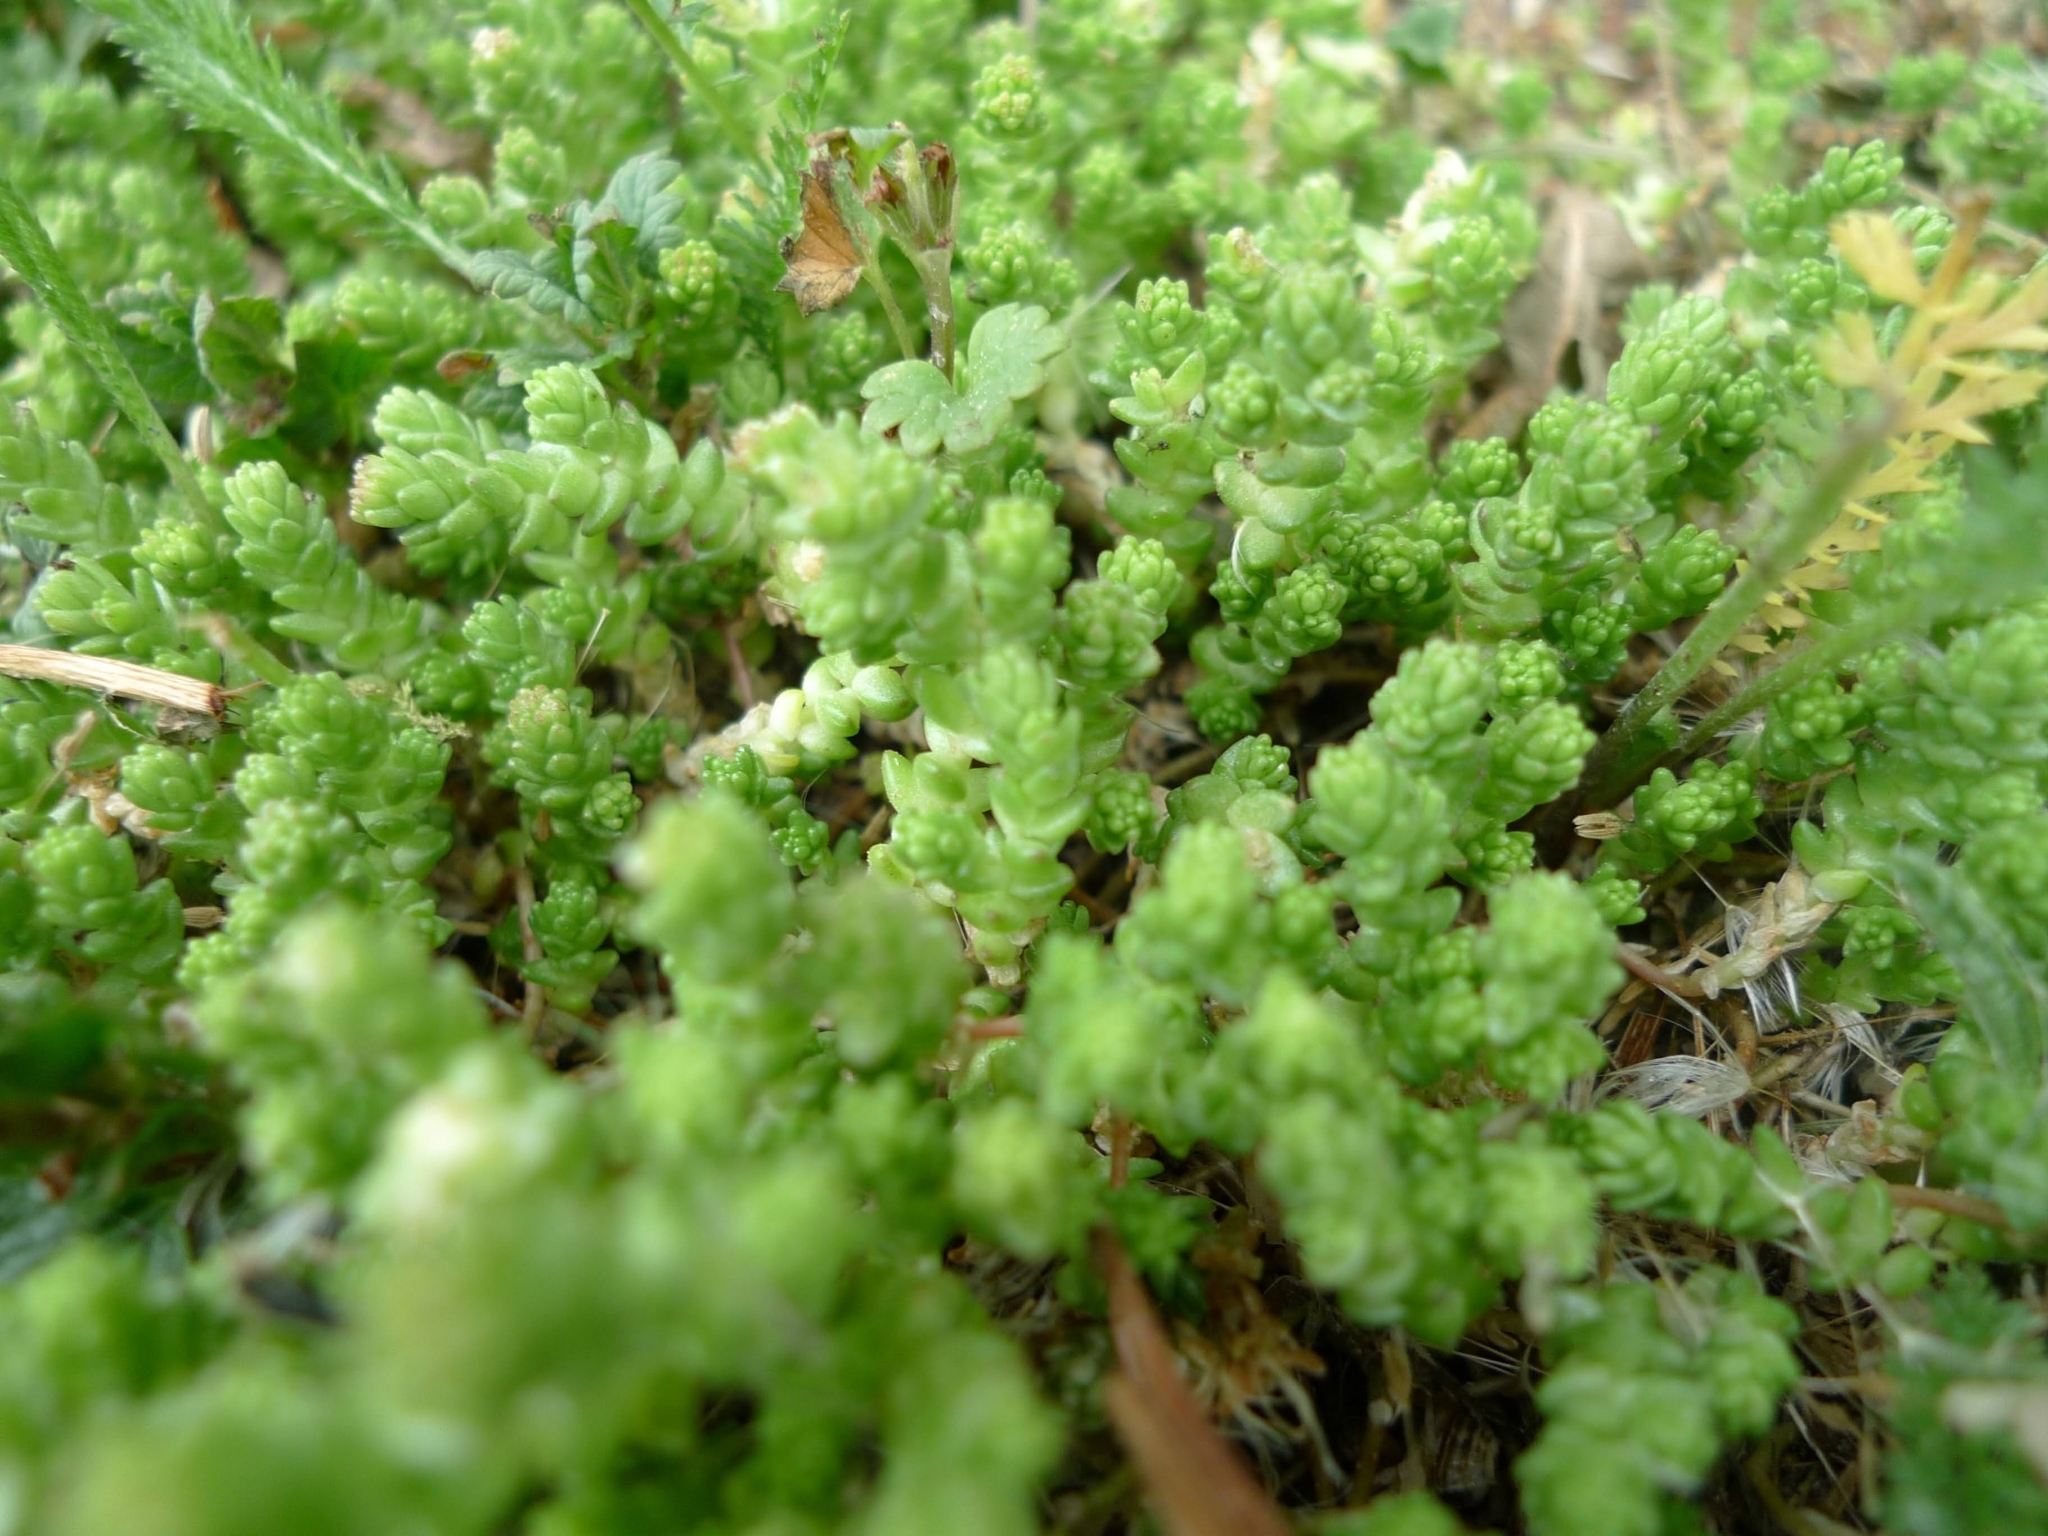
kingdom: Plantae
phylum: Tracheophyta
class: Magnoliopsida
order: Saxifragales
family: Crassulaceae
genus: Sedum
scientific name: Sedum acre
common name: Biting stonecrop
